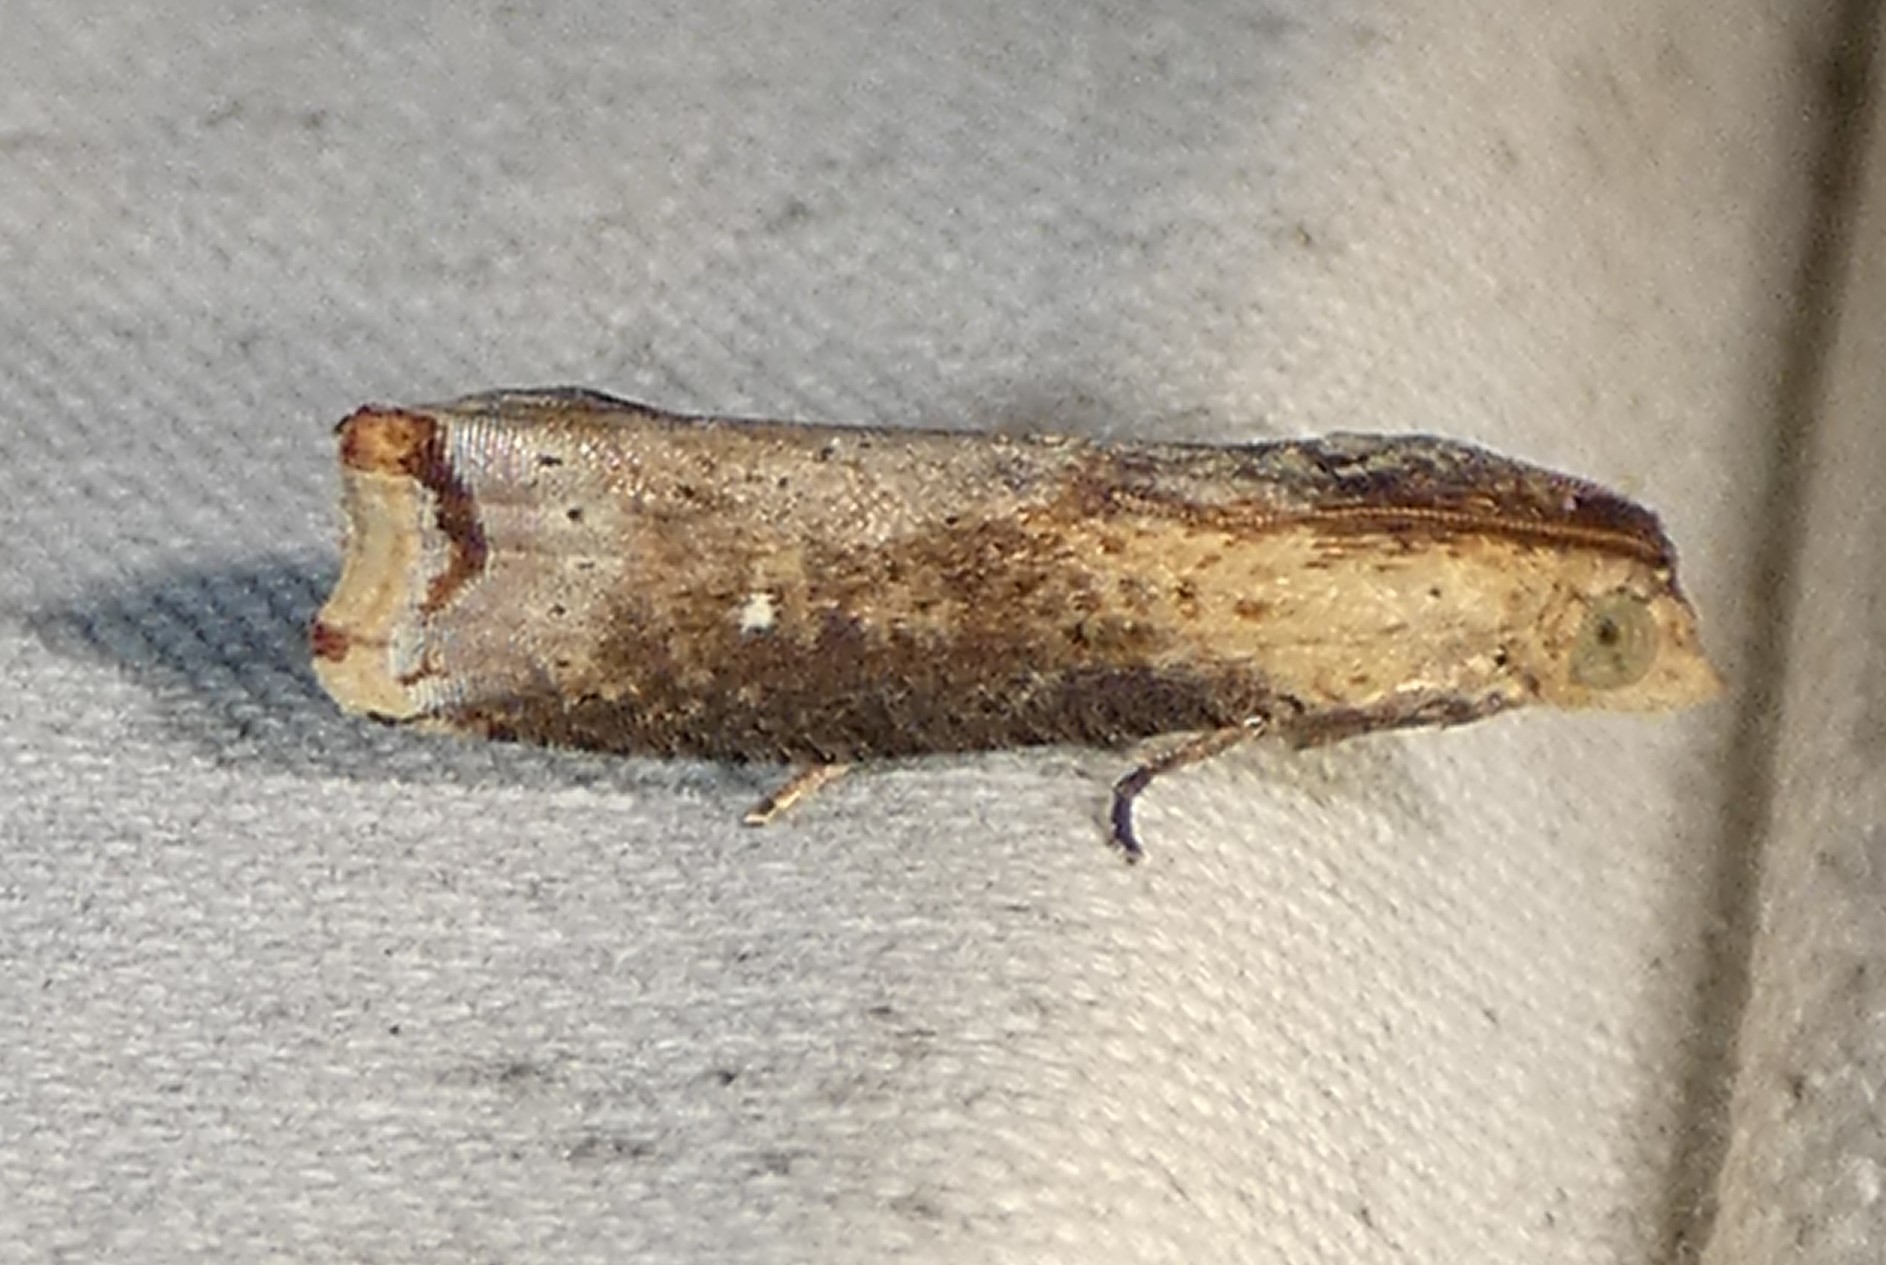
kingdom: Animalia
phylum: Arthropoda
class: Insecta
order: Lepidoptera
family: Tortricidae
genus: Pseudogalleria
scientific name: Pseudogalleria inimicella
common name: Inimical borer moth
